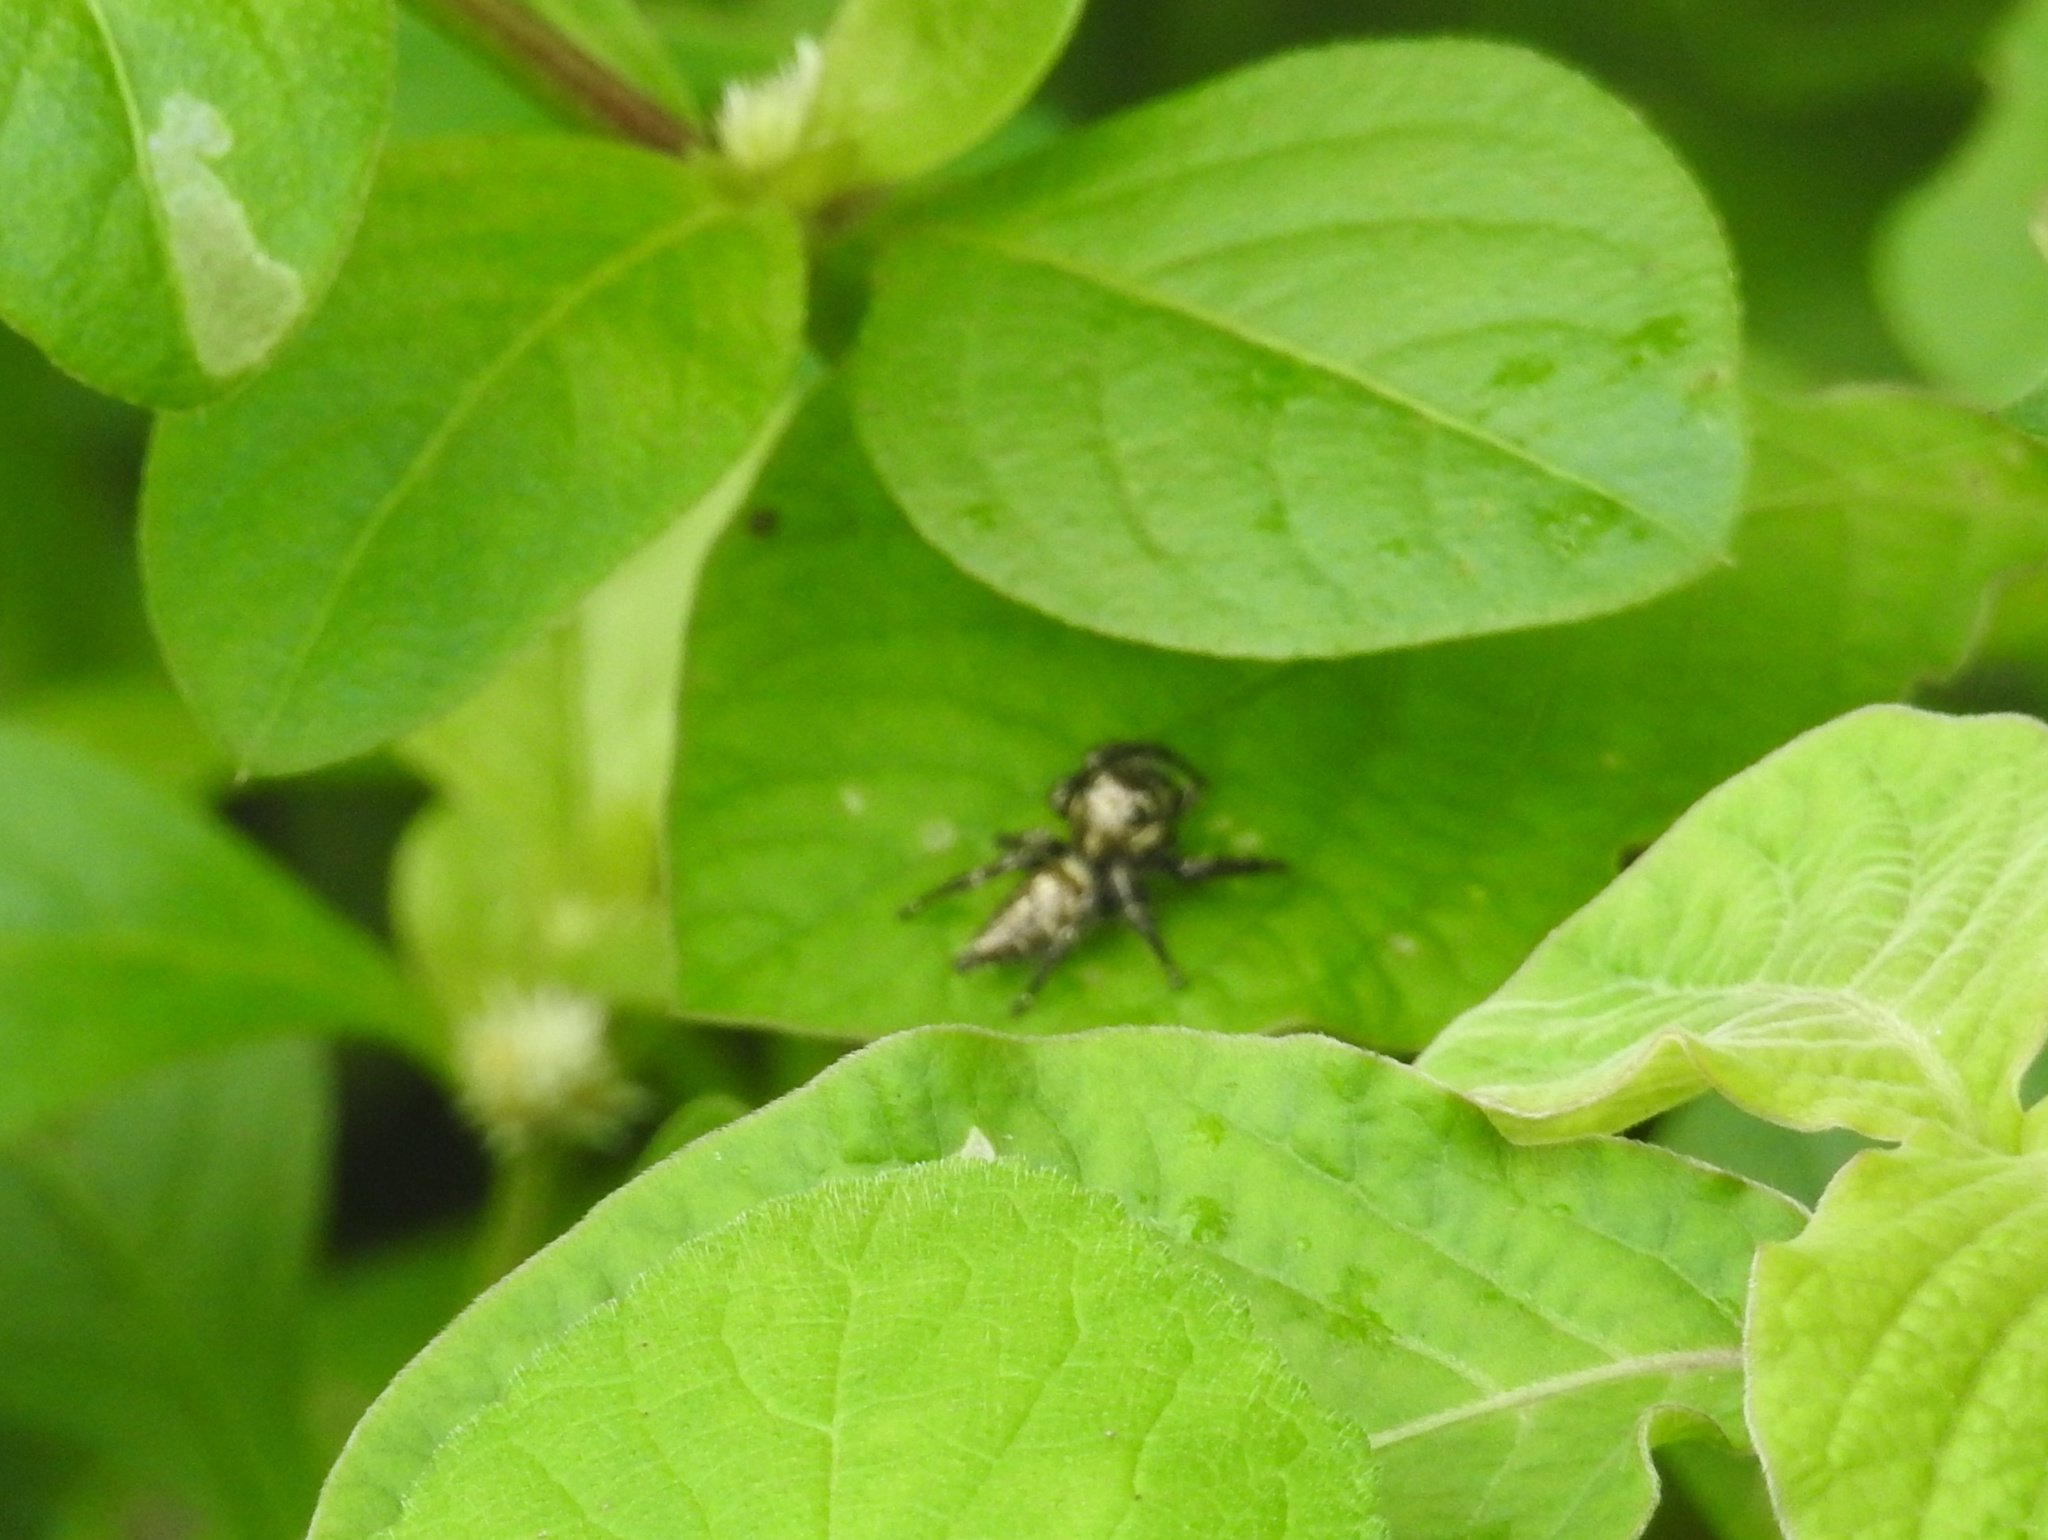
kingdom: Animalia
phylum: Arthropoda
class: Arachnida
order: Araneae
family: Salticidae
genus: Hyllus
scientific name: Hyllus semicupreus
